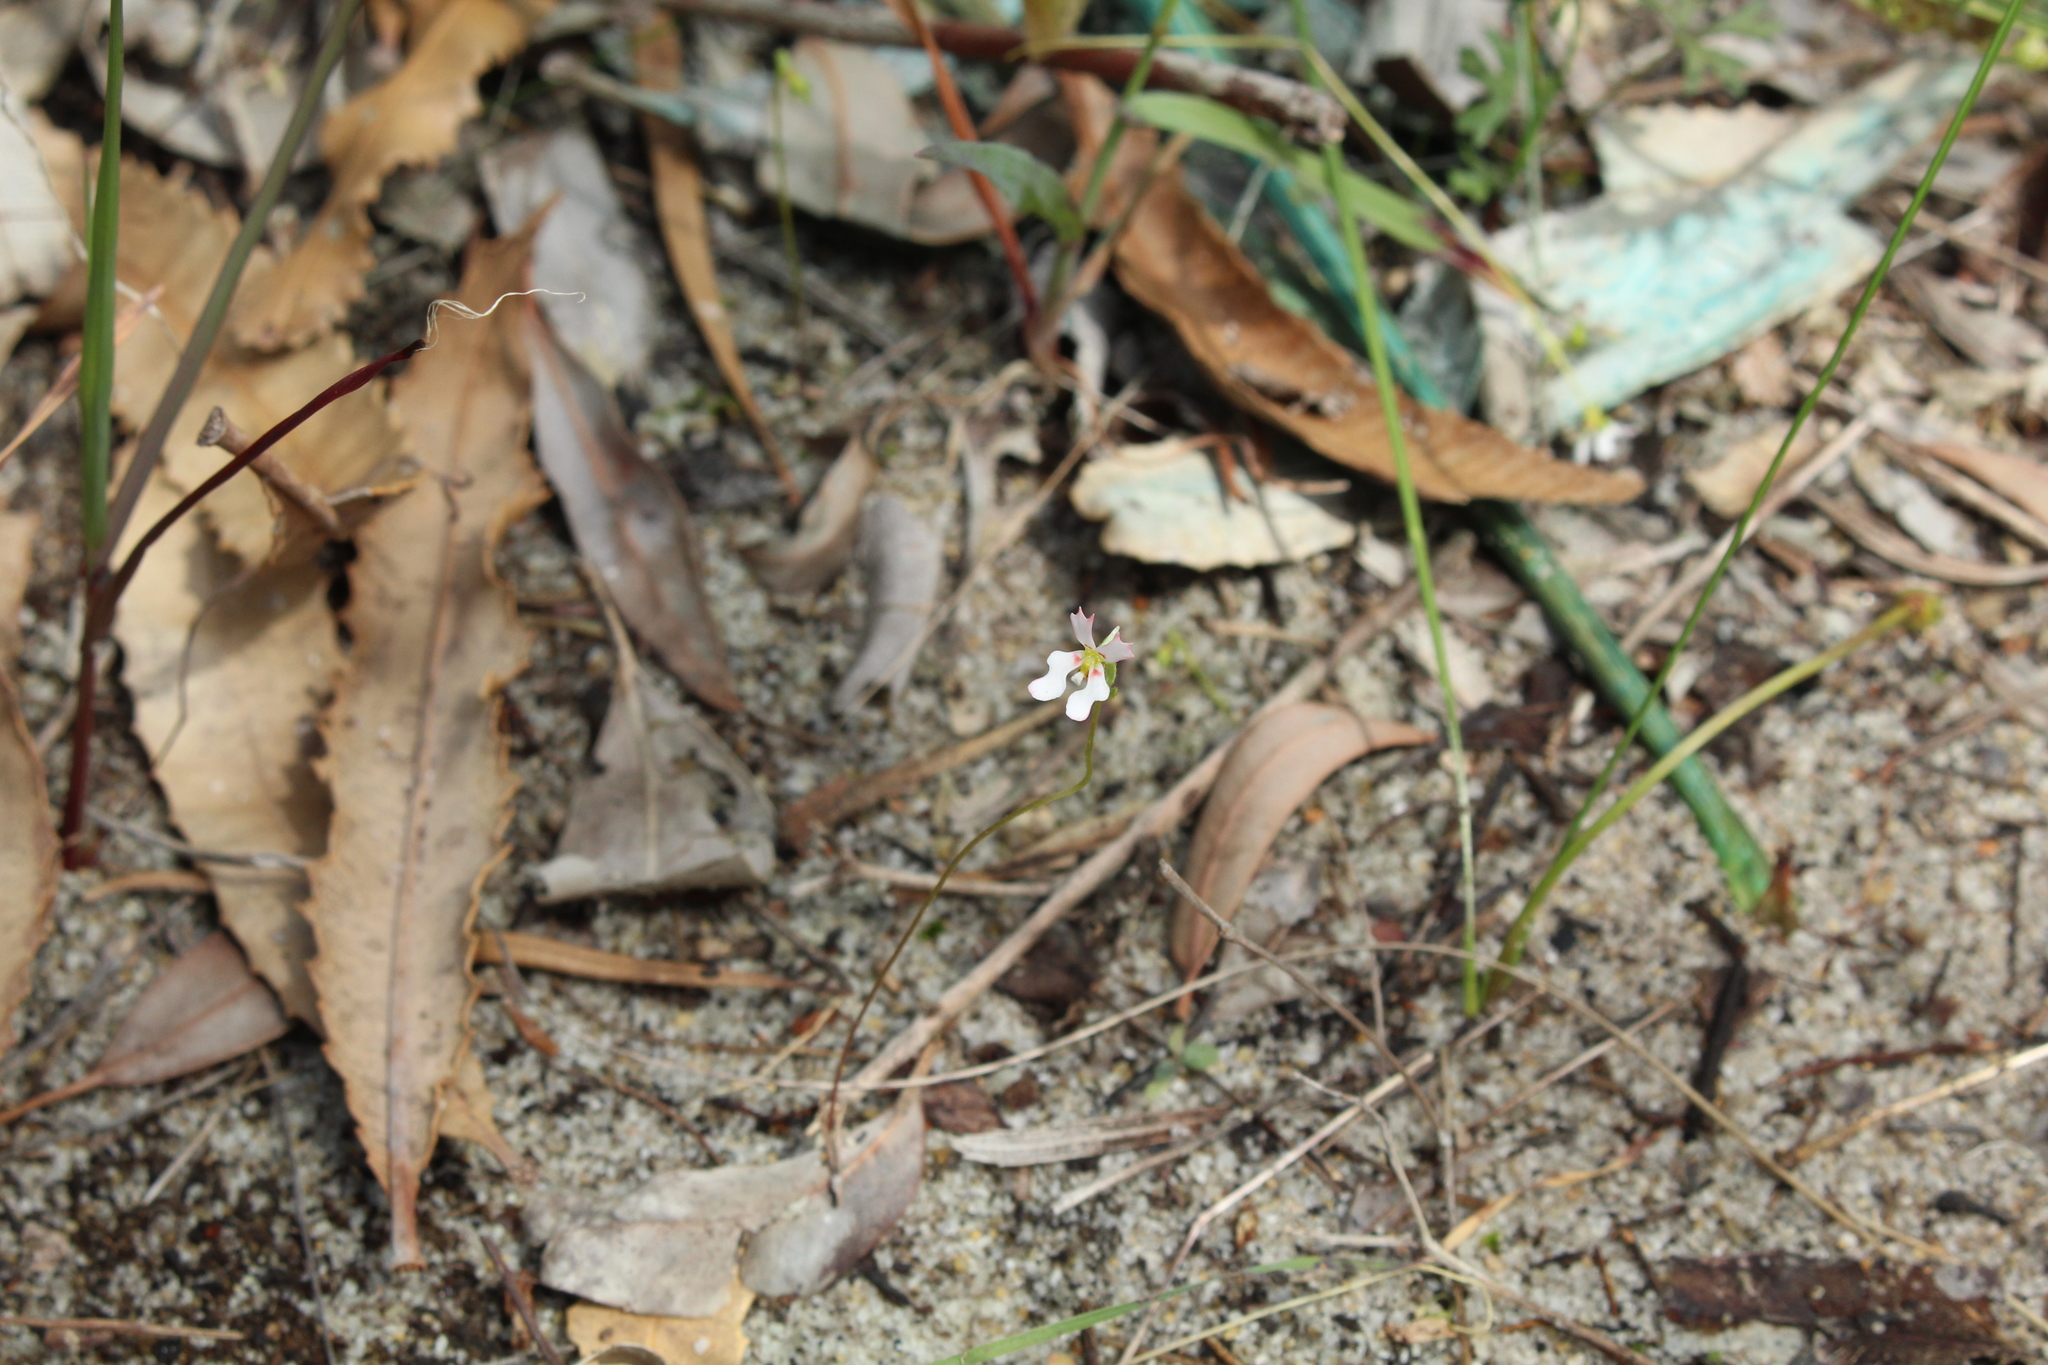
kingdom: Plantae
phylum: Tracheophyta
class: Magnoliopsida
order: Asterales
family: Stylidiaceae
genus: Stylidium
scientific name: Stylidium androsaceum
